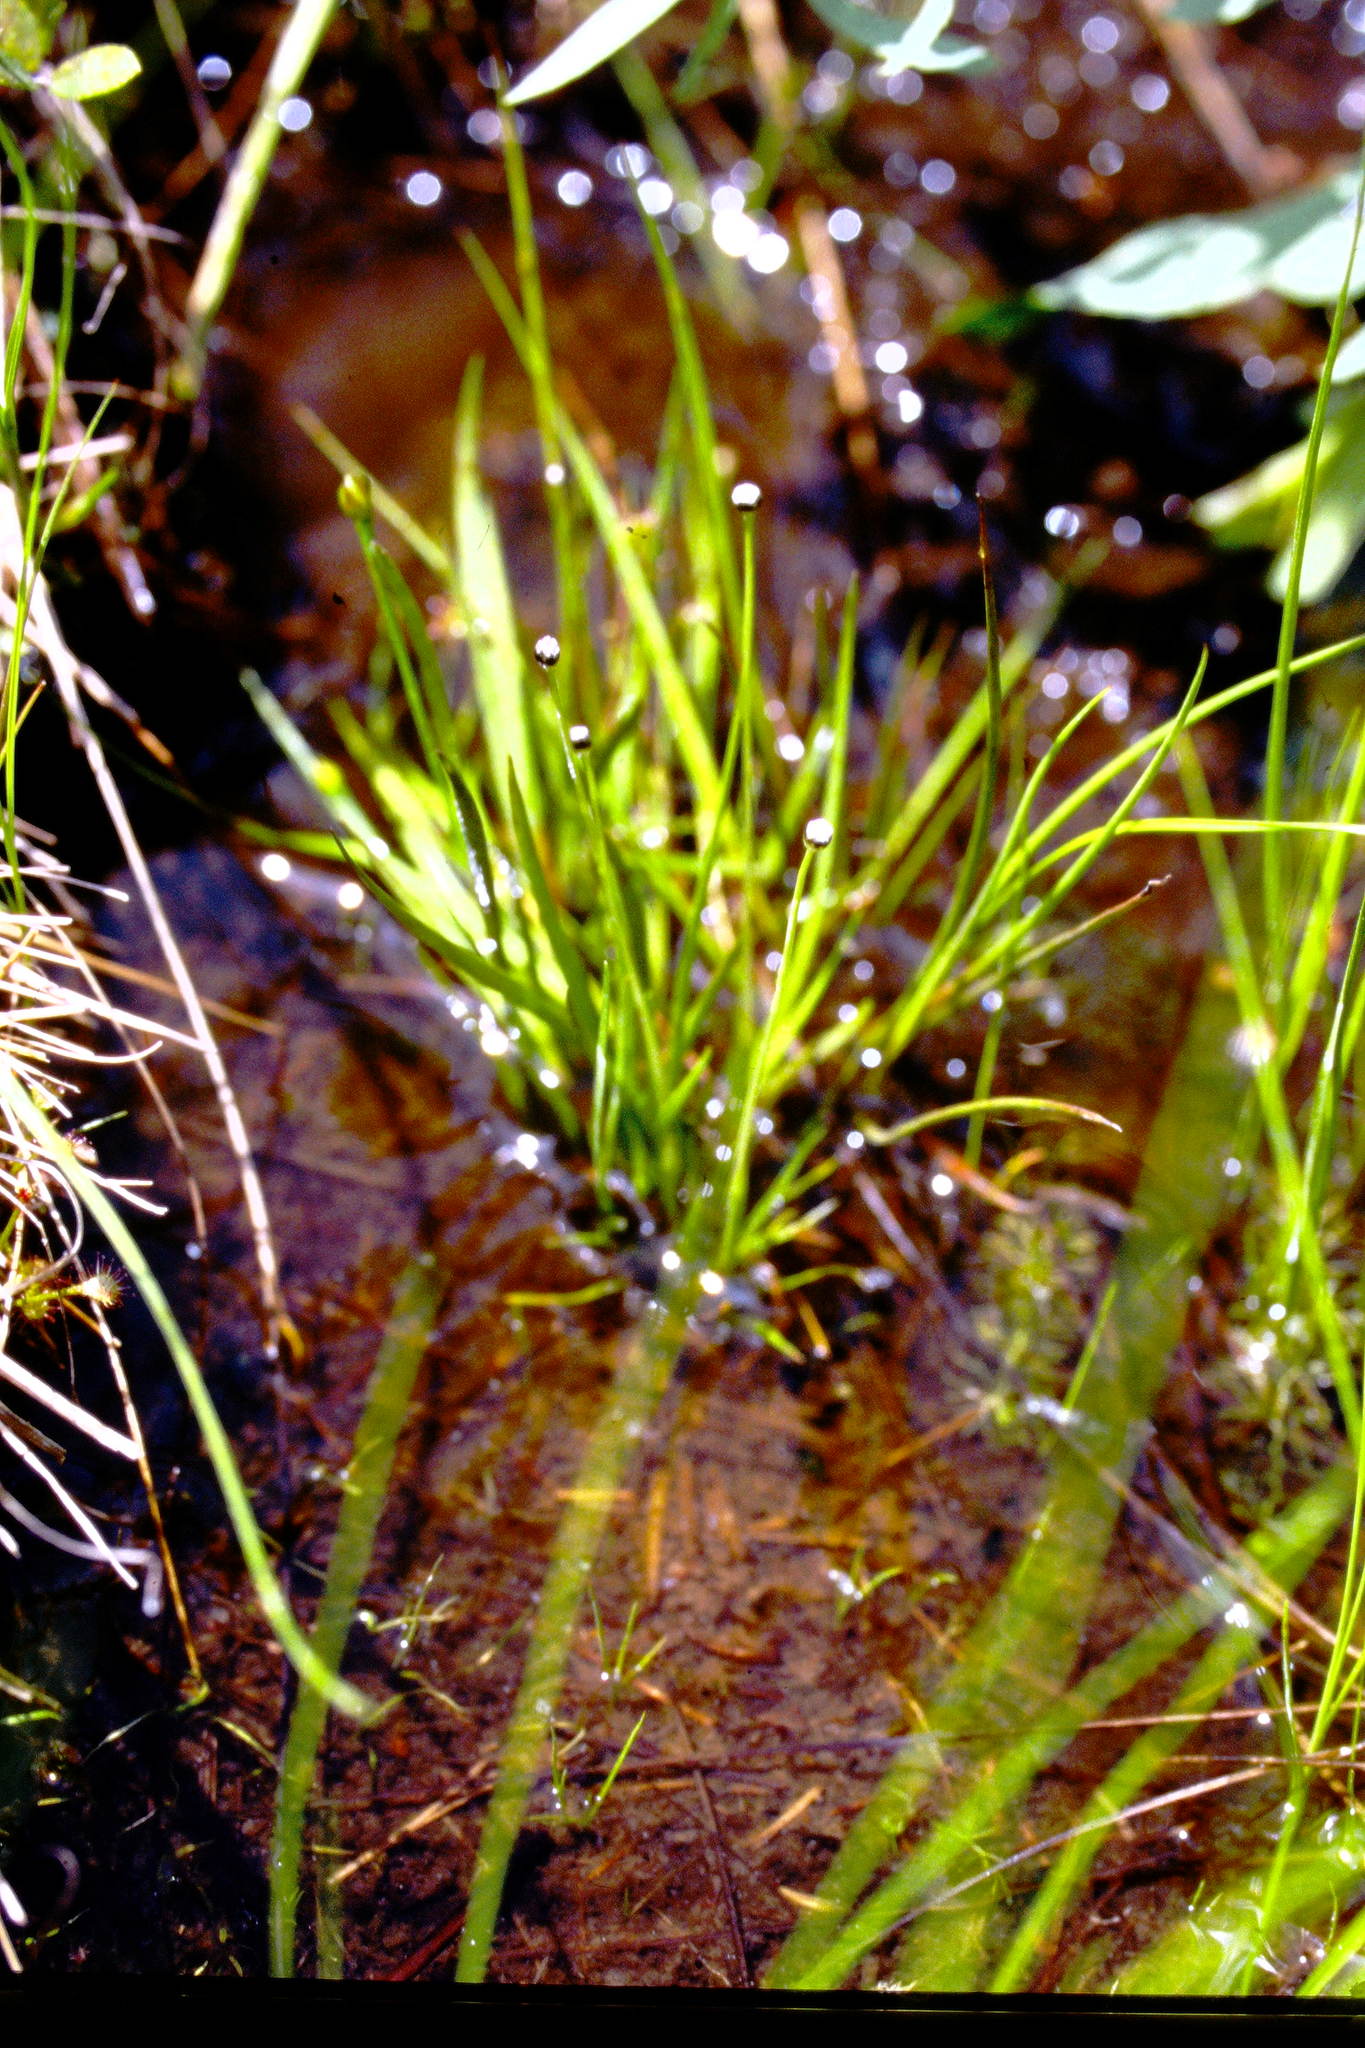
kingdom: Plantae
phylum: Tracheophyta
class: Liliopsida
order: Poales
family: Eriocaulaceae
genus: Eriocaulon
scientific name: Eriocaulon aquaticum
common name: Pipewort
